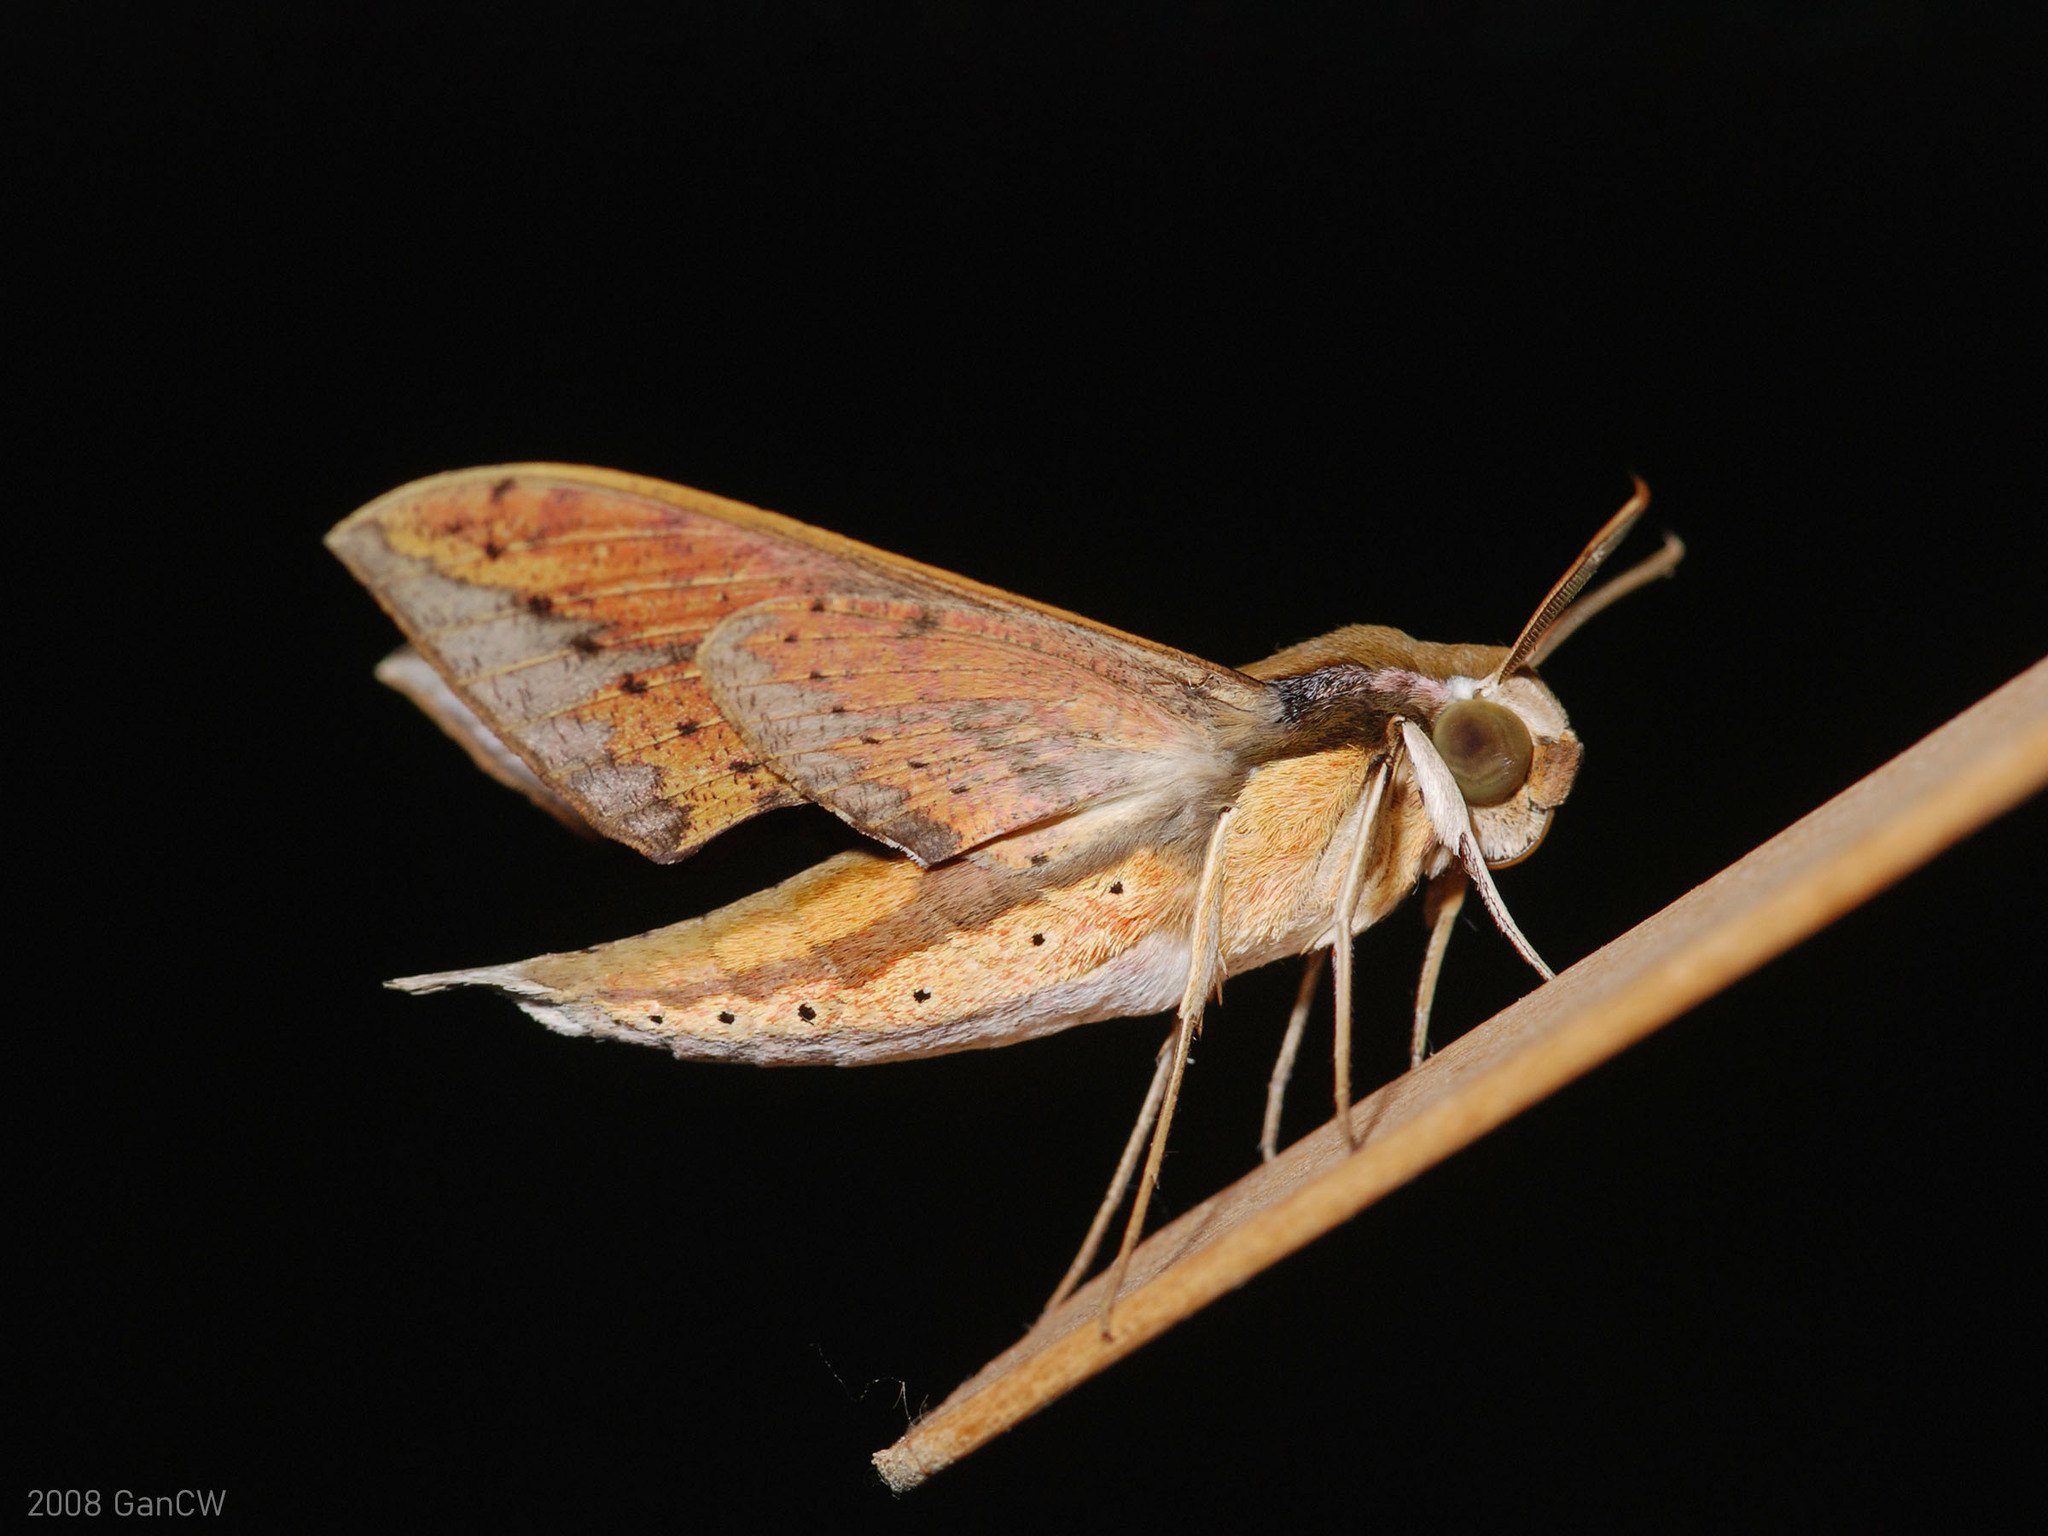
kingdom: Animalia
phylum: Arthropoda
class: Insecta
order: Lepidoptera
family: Sphingidae
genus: Rhagastis
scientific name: Rhagastis castor
